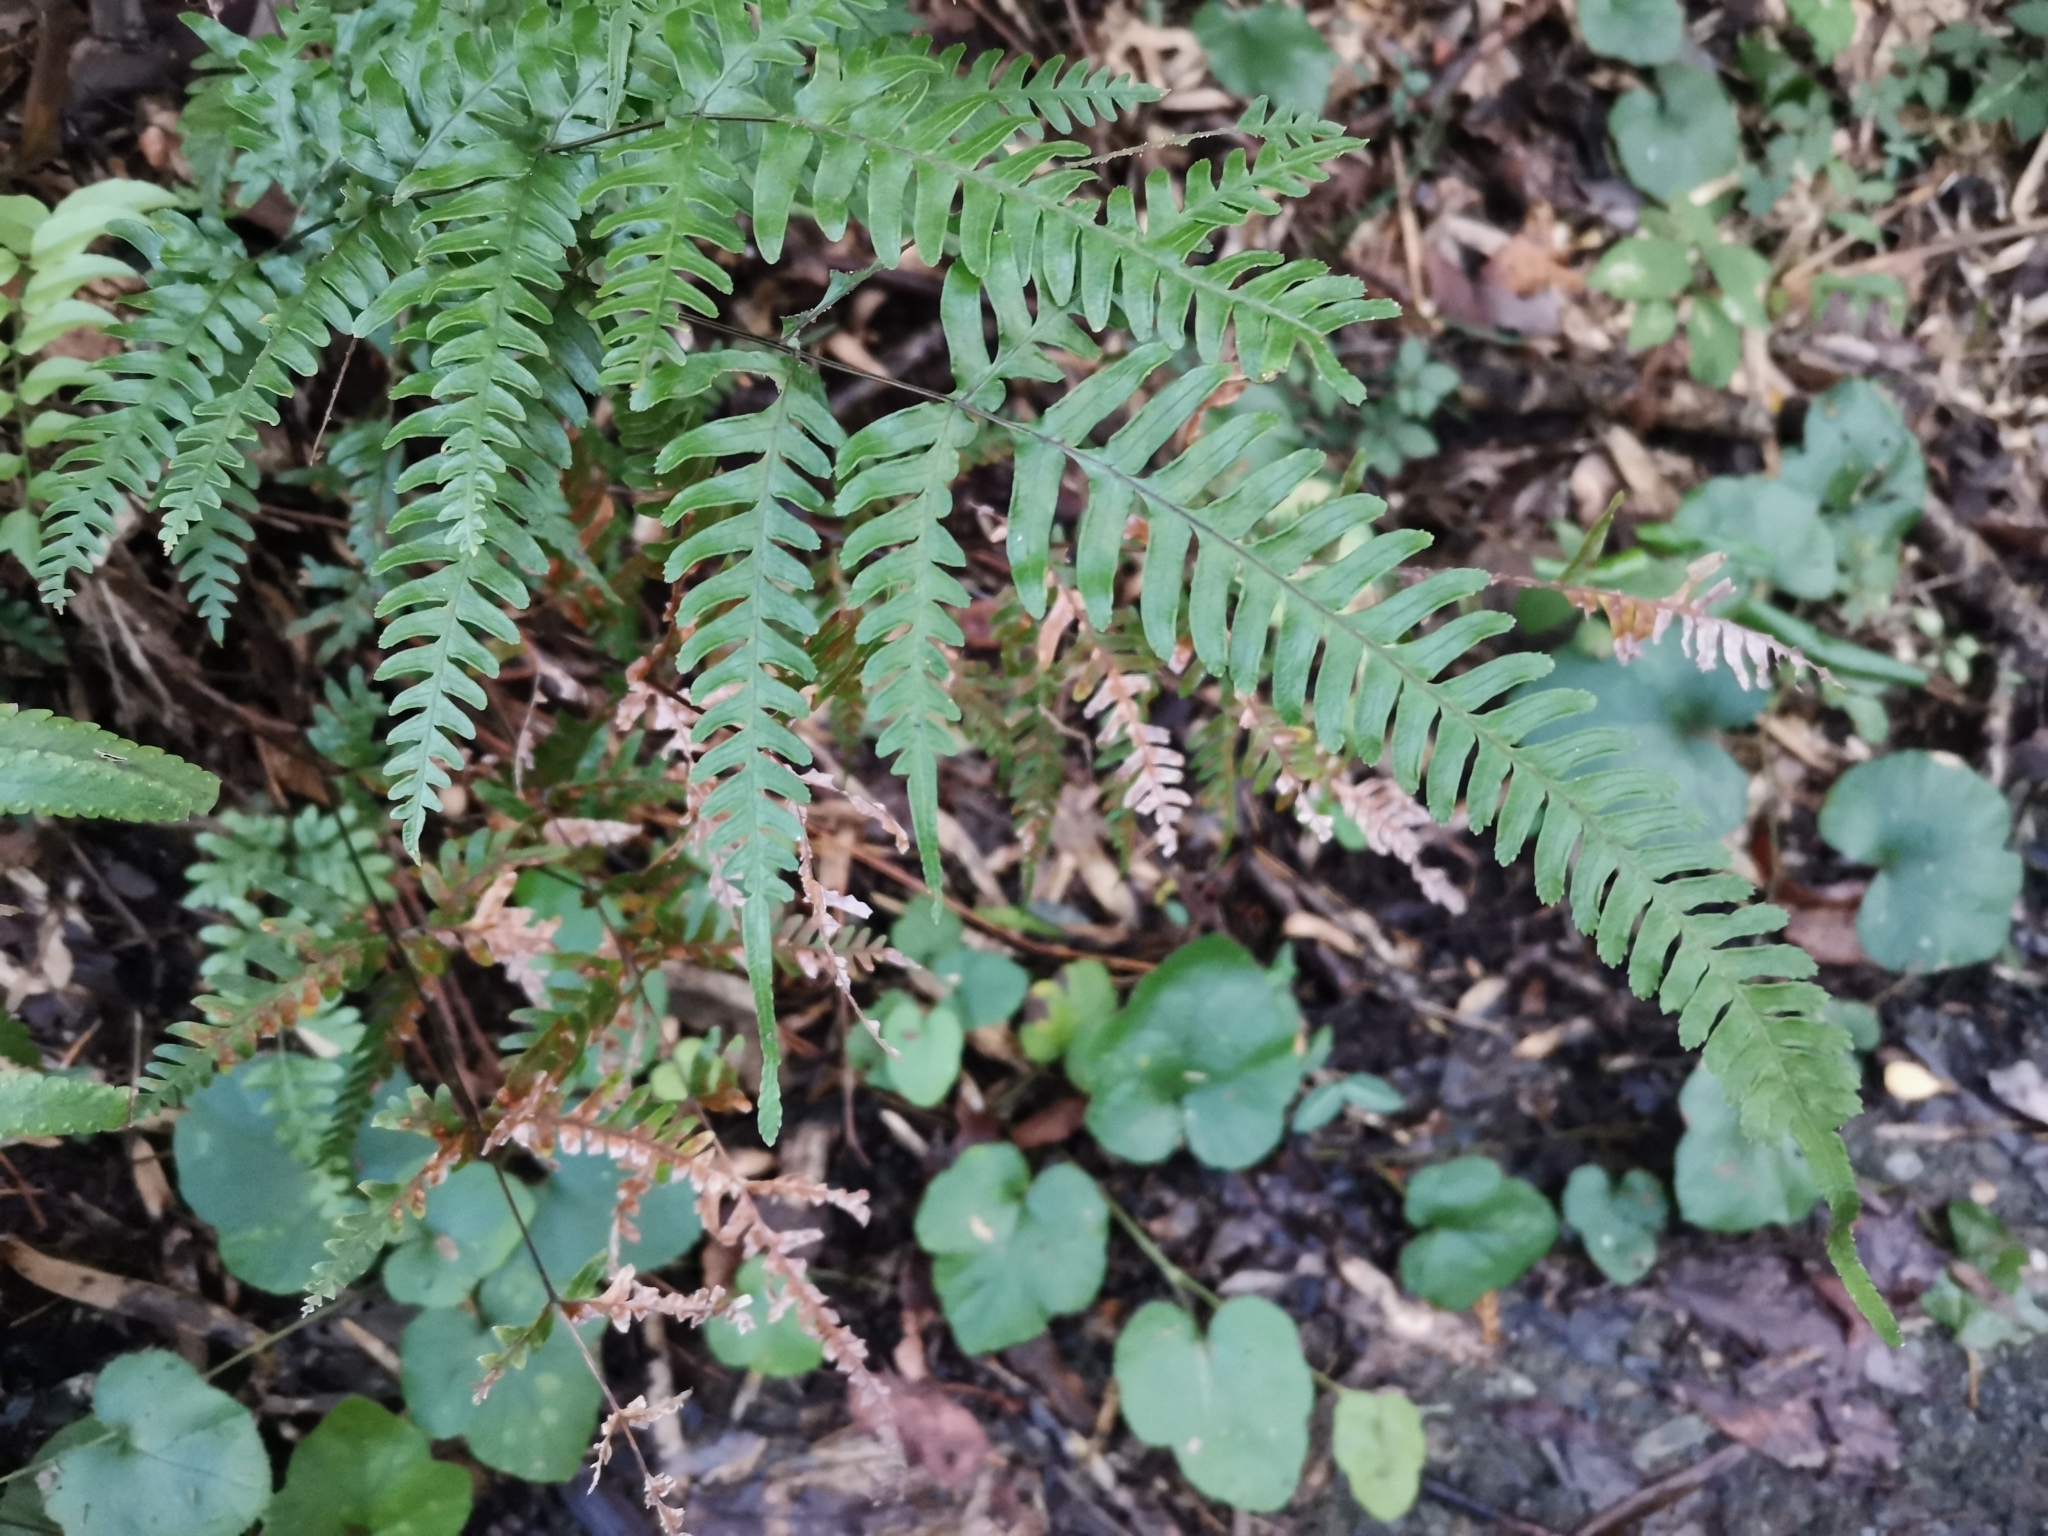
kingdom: Plantae
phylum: Tracheophyta
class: Polypodiopsida
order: Polypodiales
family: Pteridaceae
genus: Pteris
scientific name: Pteris dispar
